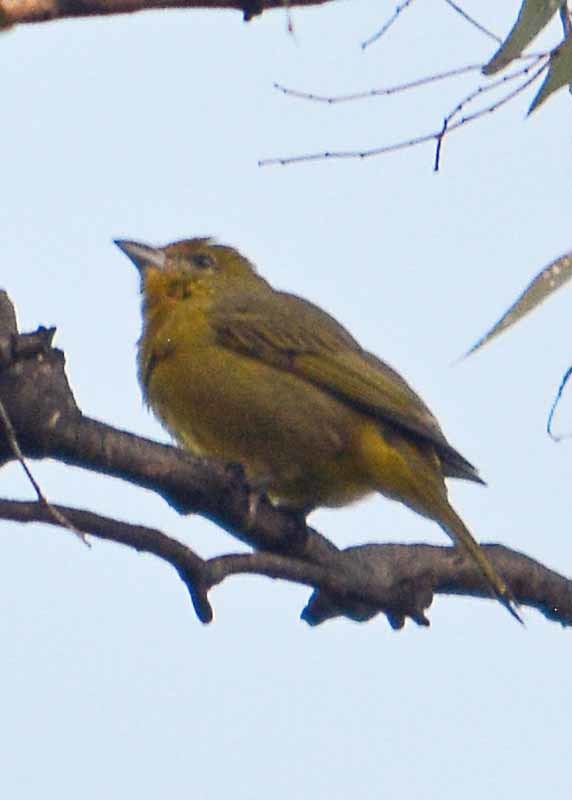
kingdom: Animalia
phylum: Chordata
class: Aves
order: Passeriformes
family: Cardinalidae
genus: Piranga
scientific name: Piranga flava
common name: Red tanager
